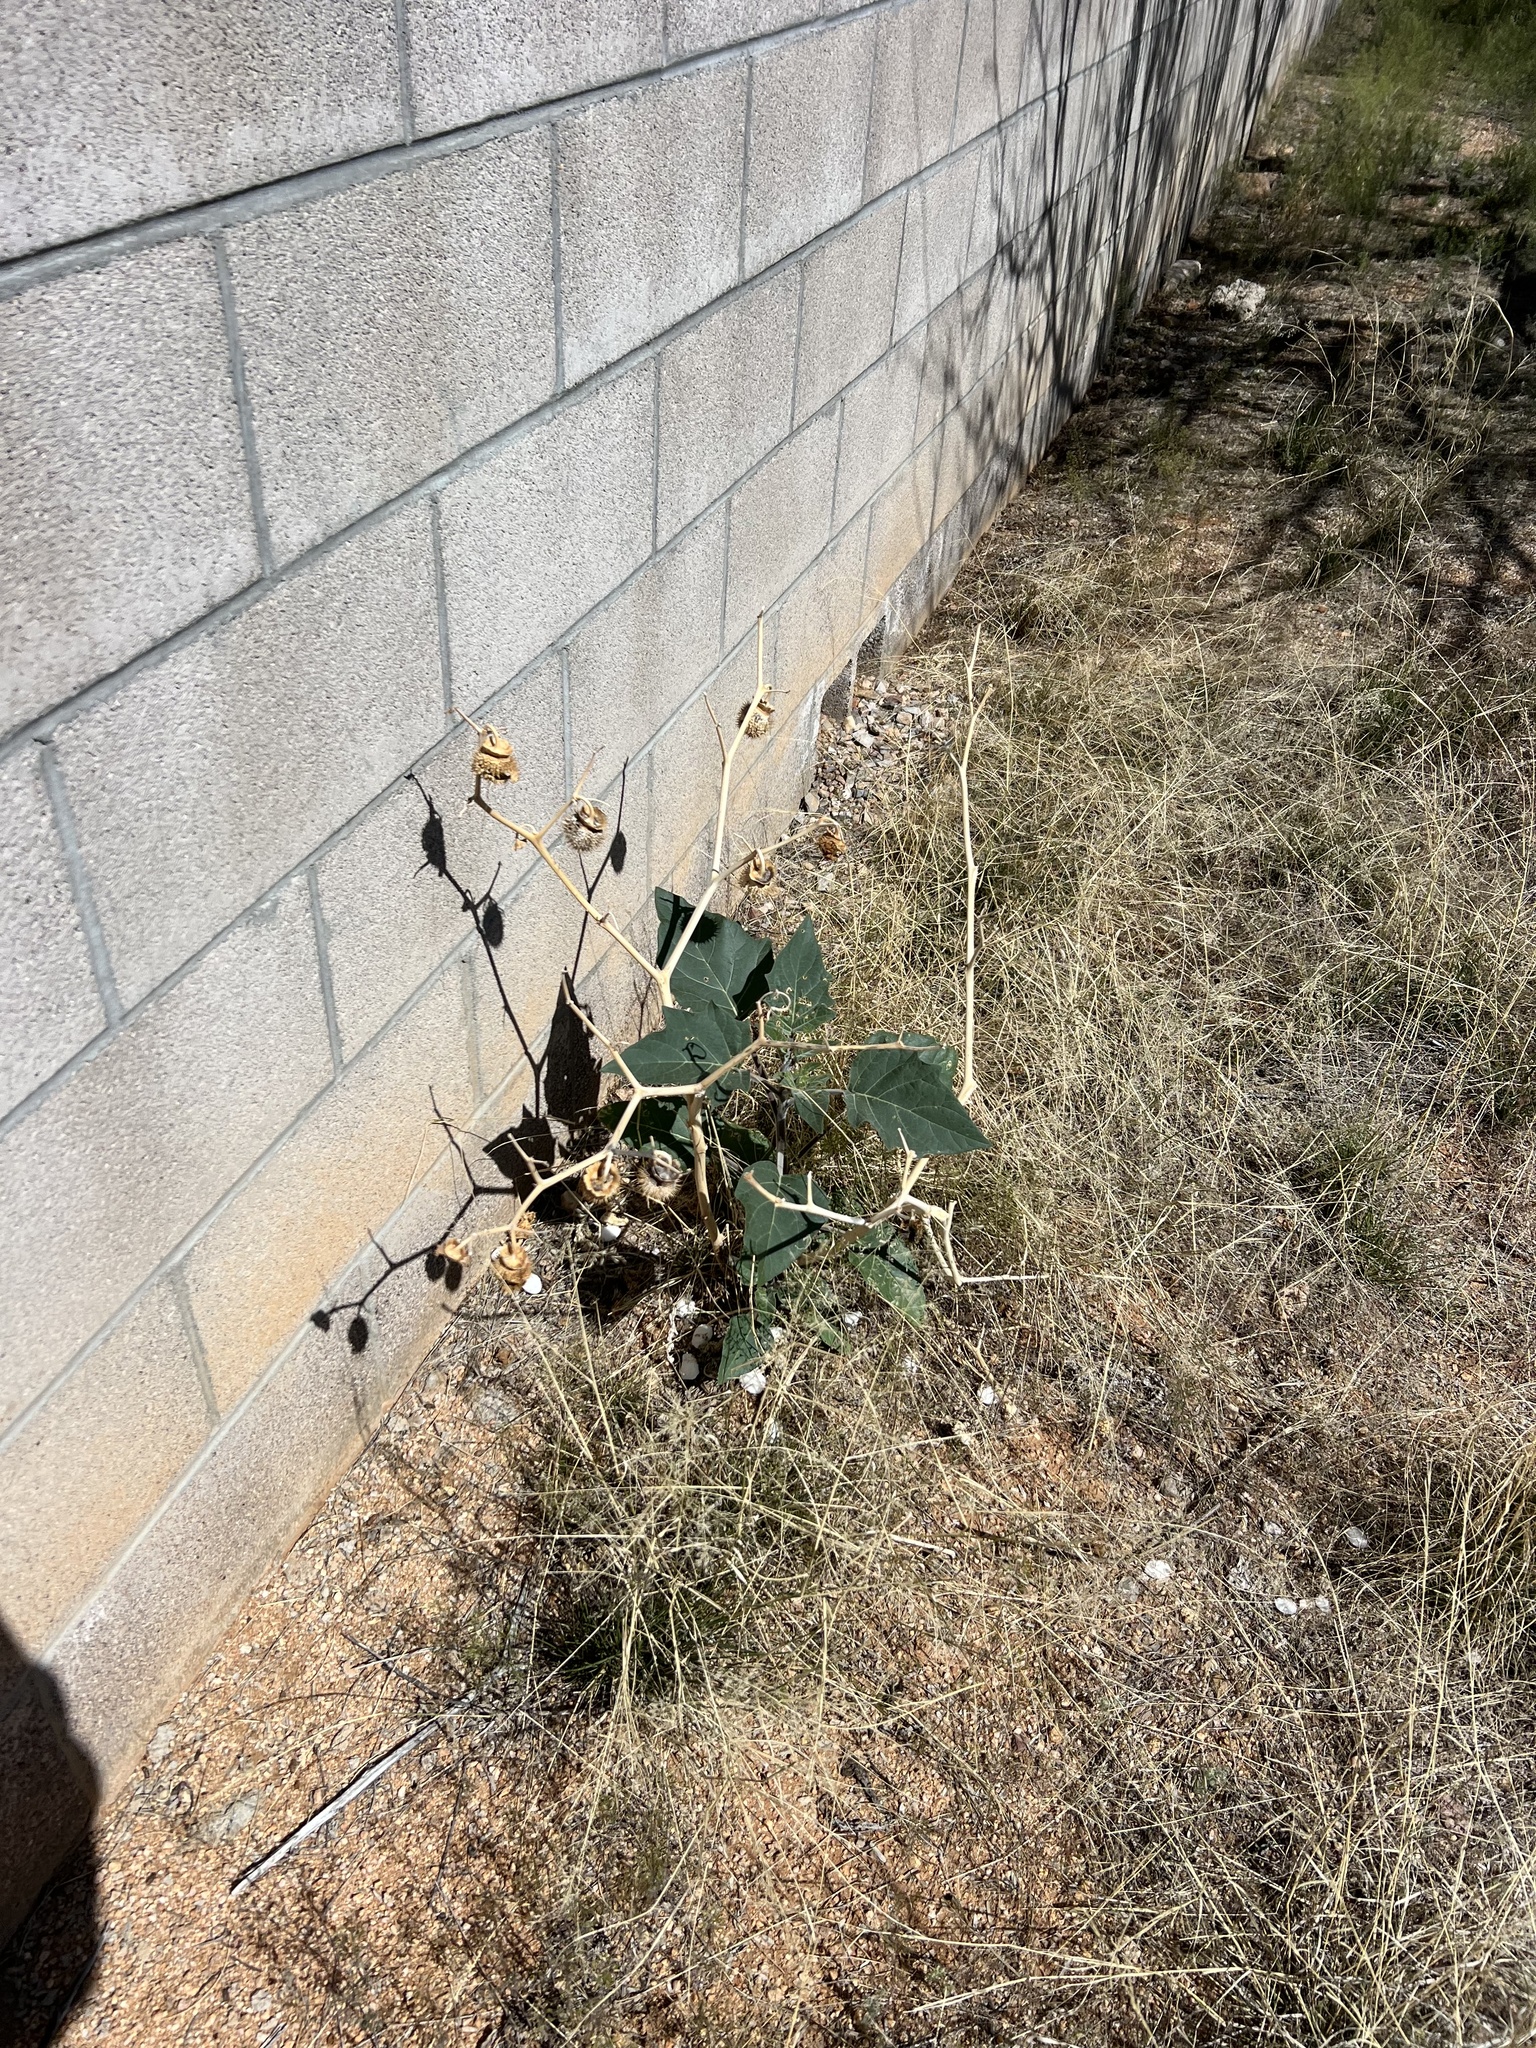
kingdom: Plantae
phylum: Tracheophyta
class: Magnoliopsida
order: Solanales
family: Solanaceae
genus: Datura
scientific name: Datura wrightii
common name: Sacred thorn-apple
